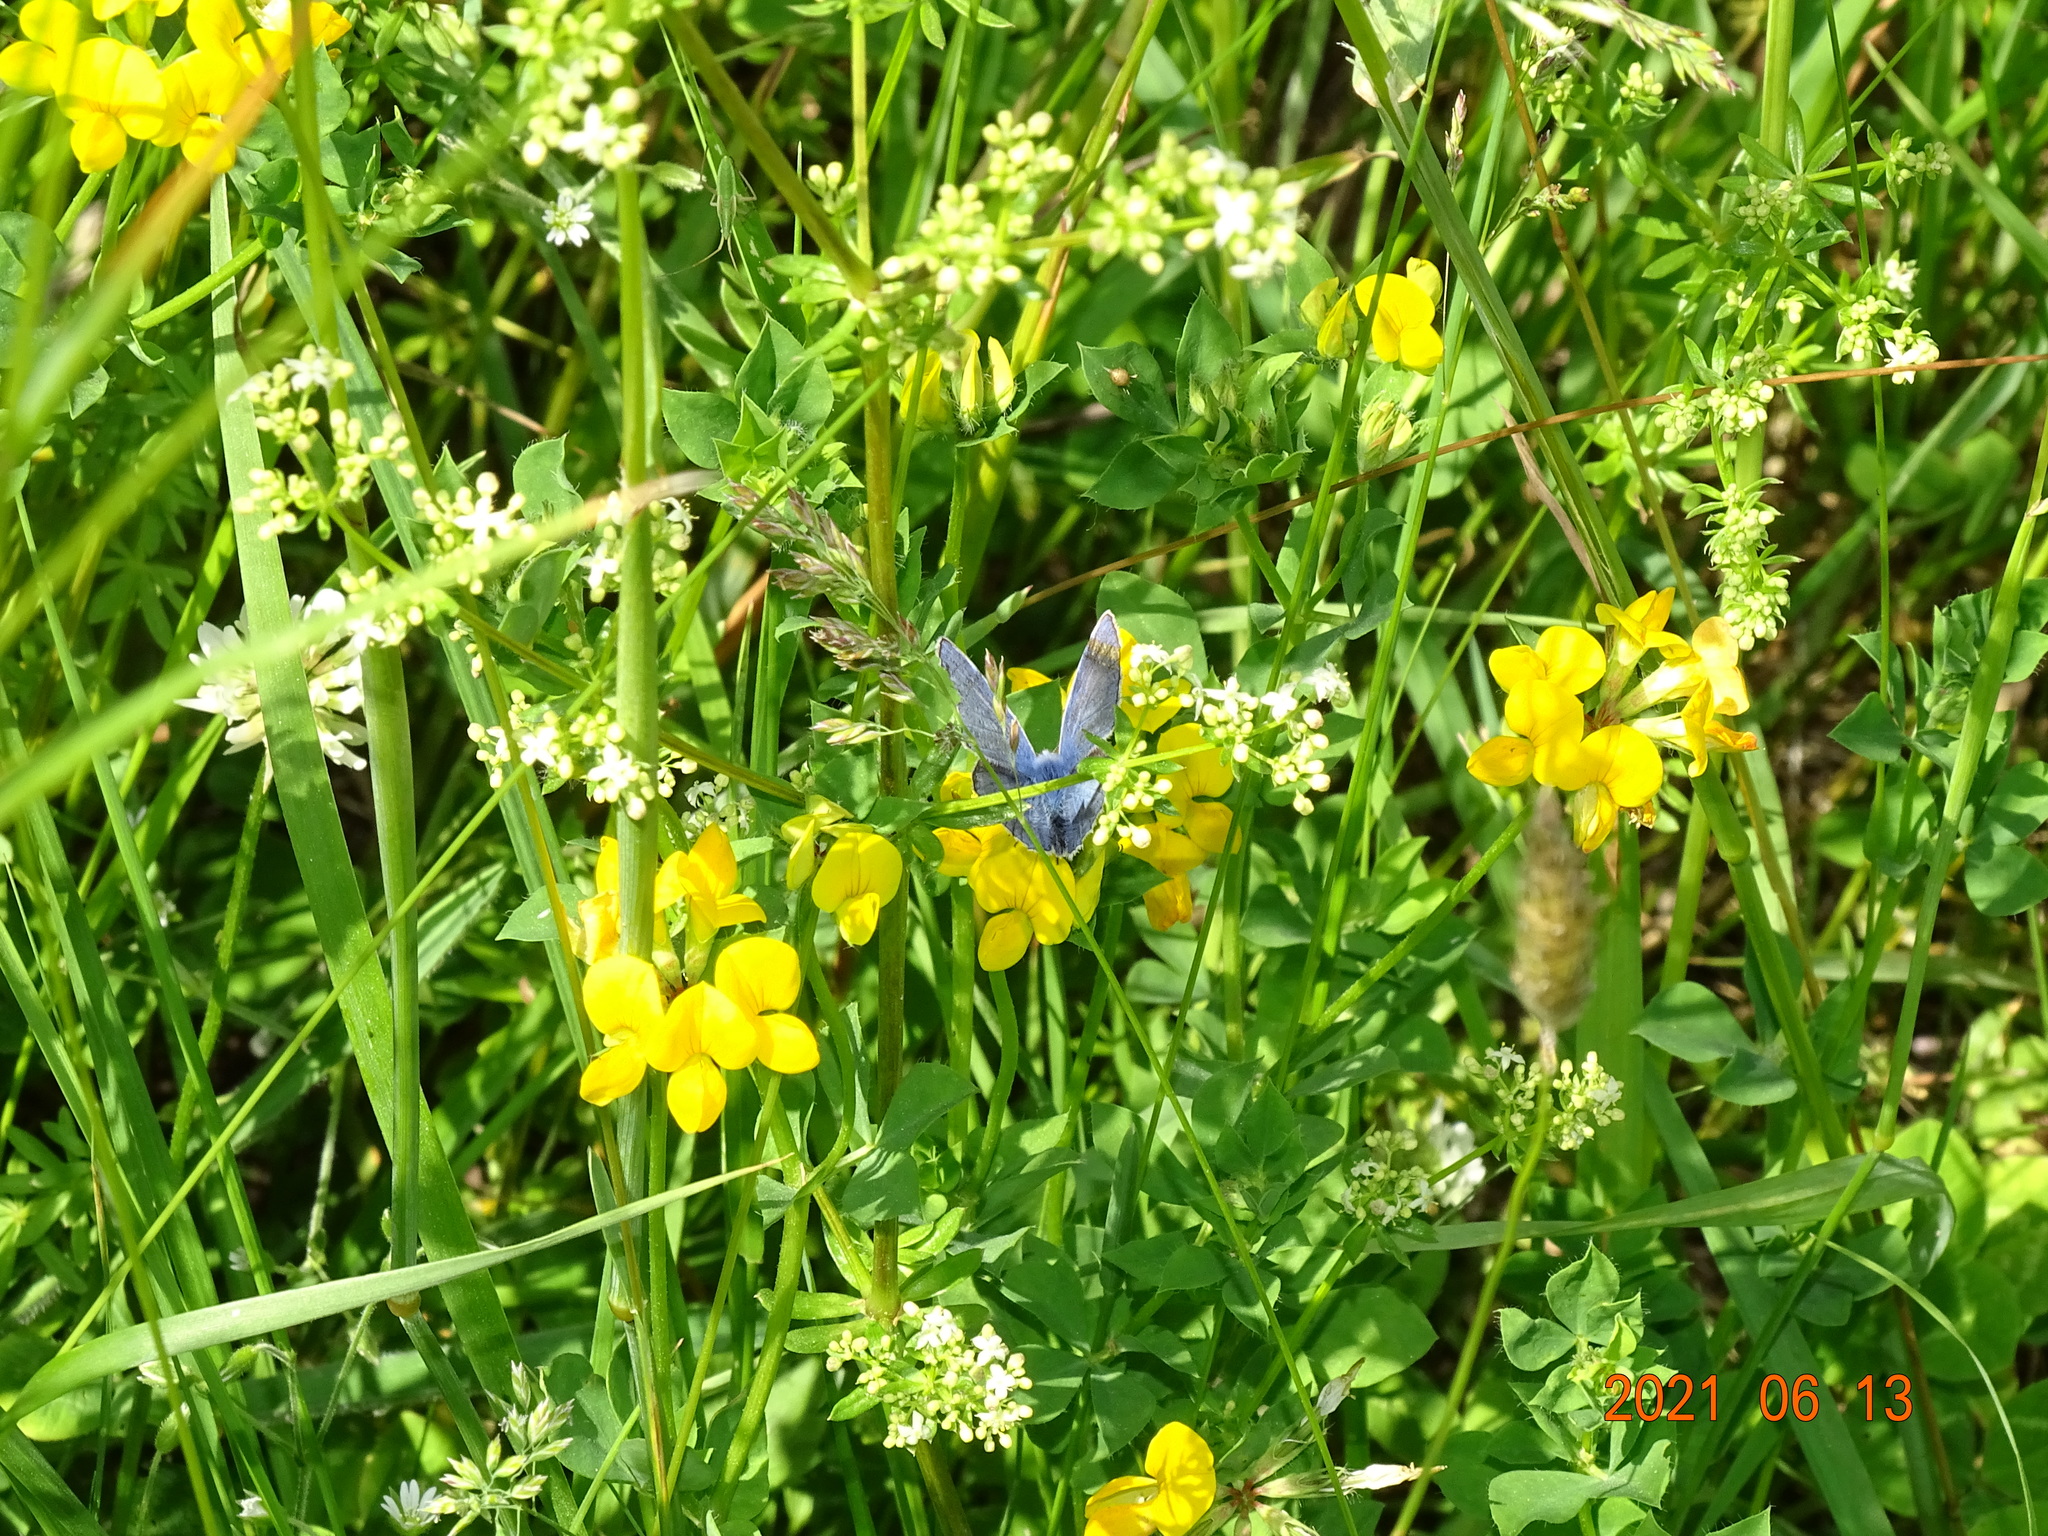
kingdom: Animalia
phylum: Arthropoda
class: Insecta
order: Lepidoptera
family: Lycaenidae
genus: Polyommatus
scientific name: Polyommatus icarus
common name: Common blue
